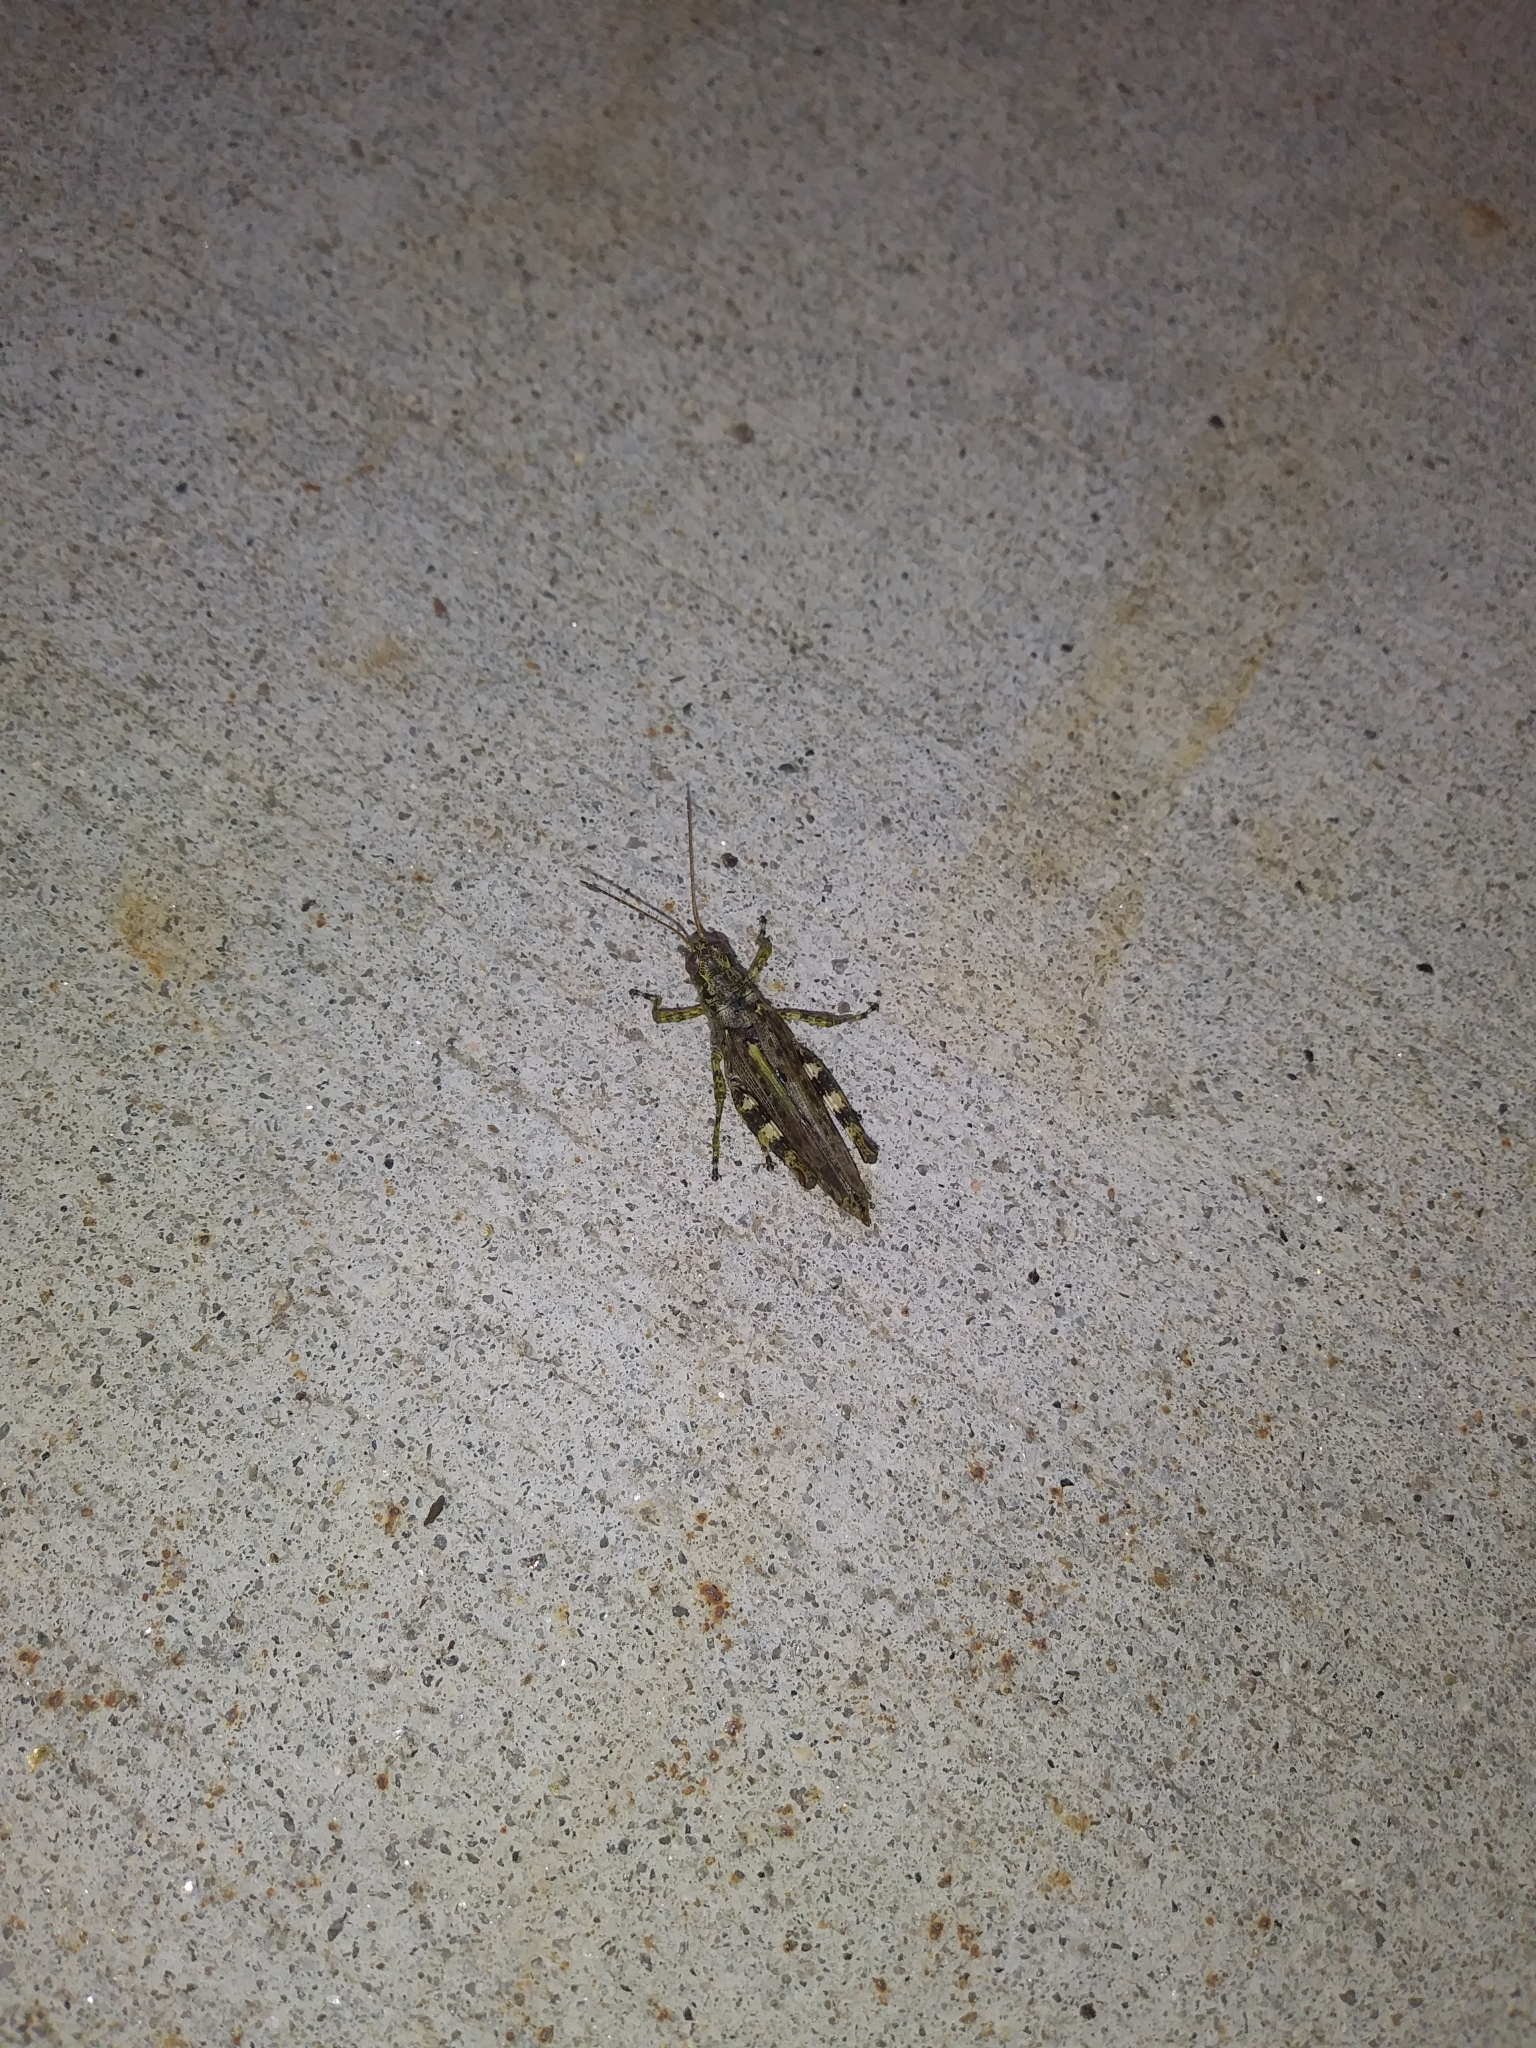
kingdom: Animalia
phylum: Arthropoda
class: Insecta
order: Orthoptera
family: Acrididae
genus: Melanoplus
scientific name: Melanoplus punctulatus
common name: Pine-tree spur-throat grasshopper
